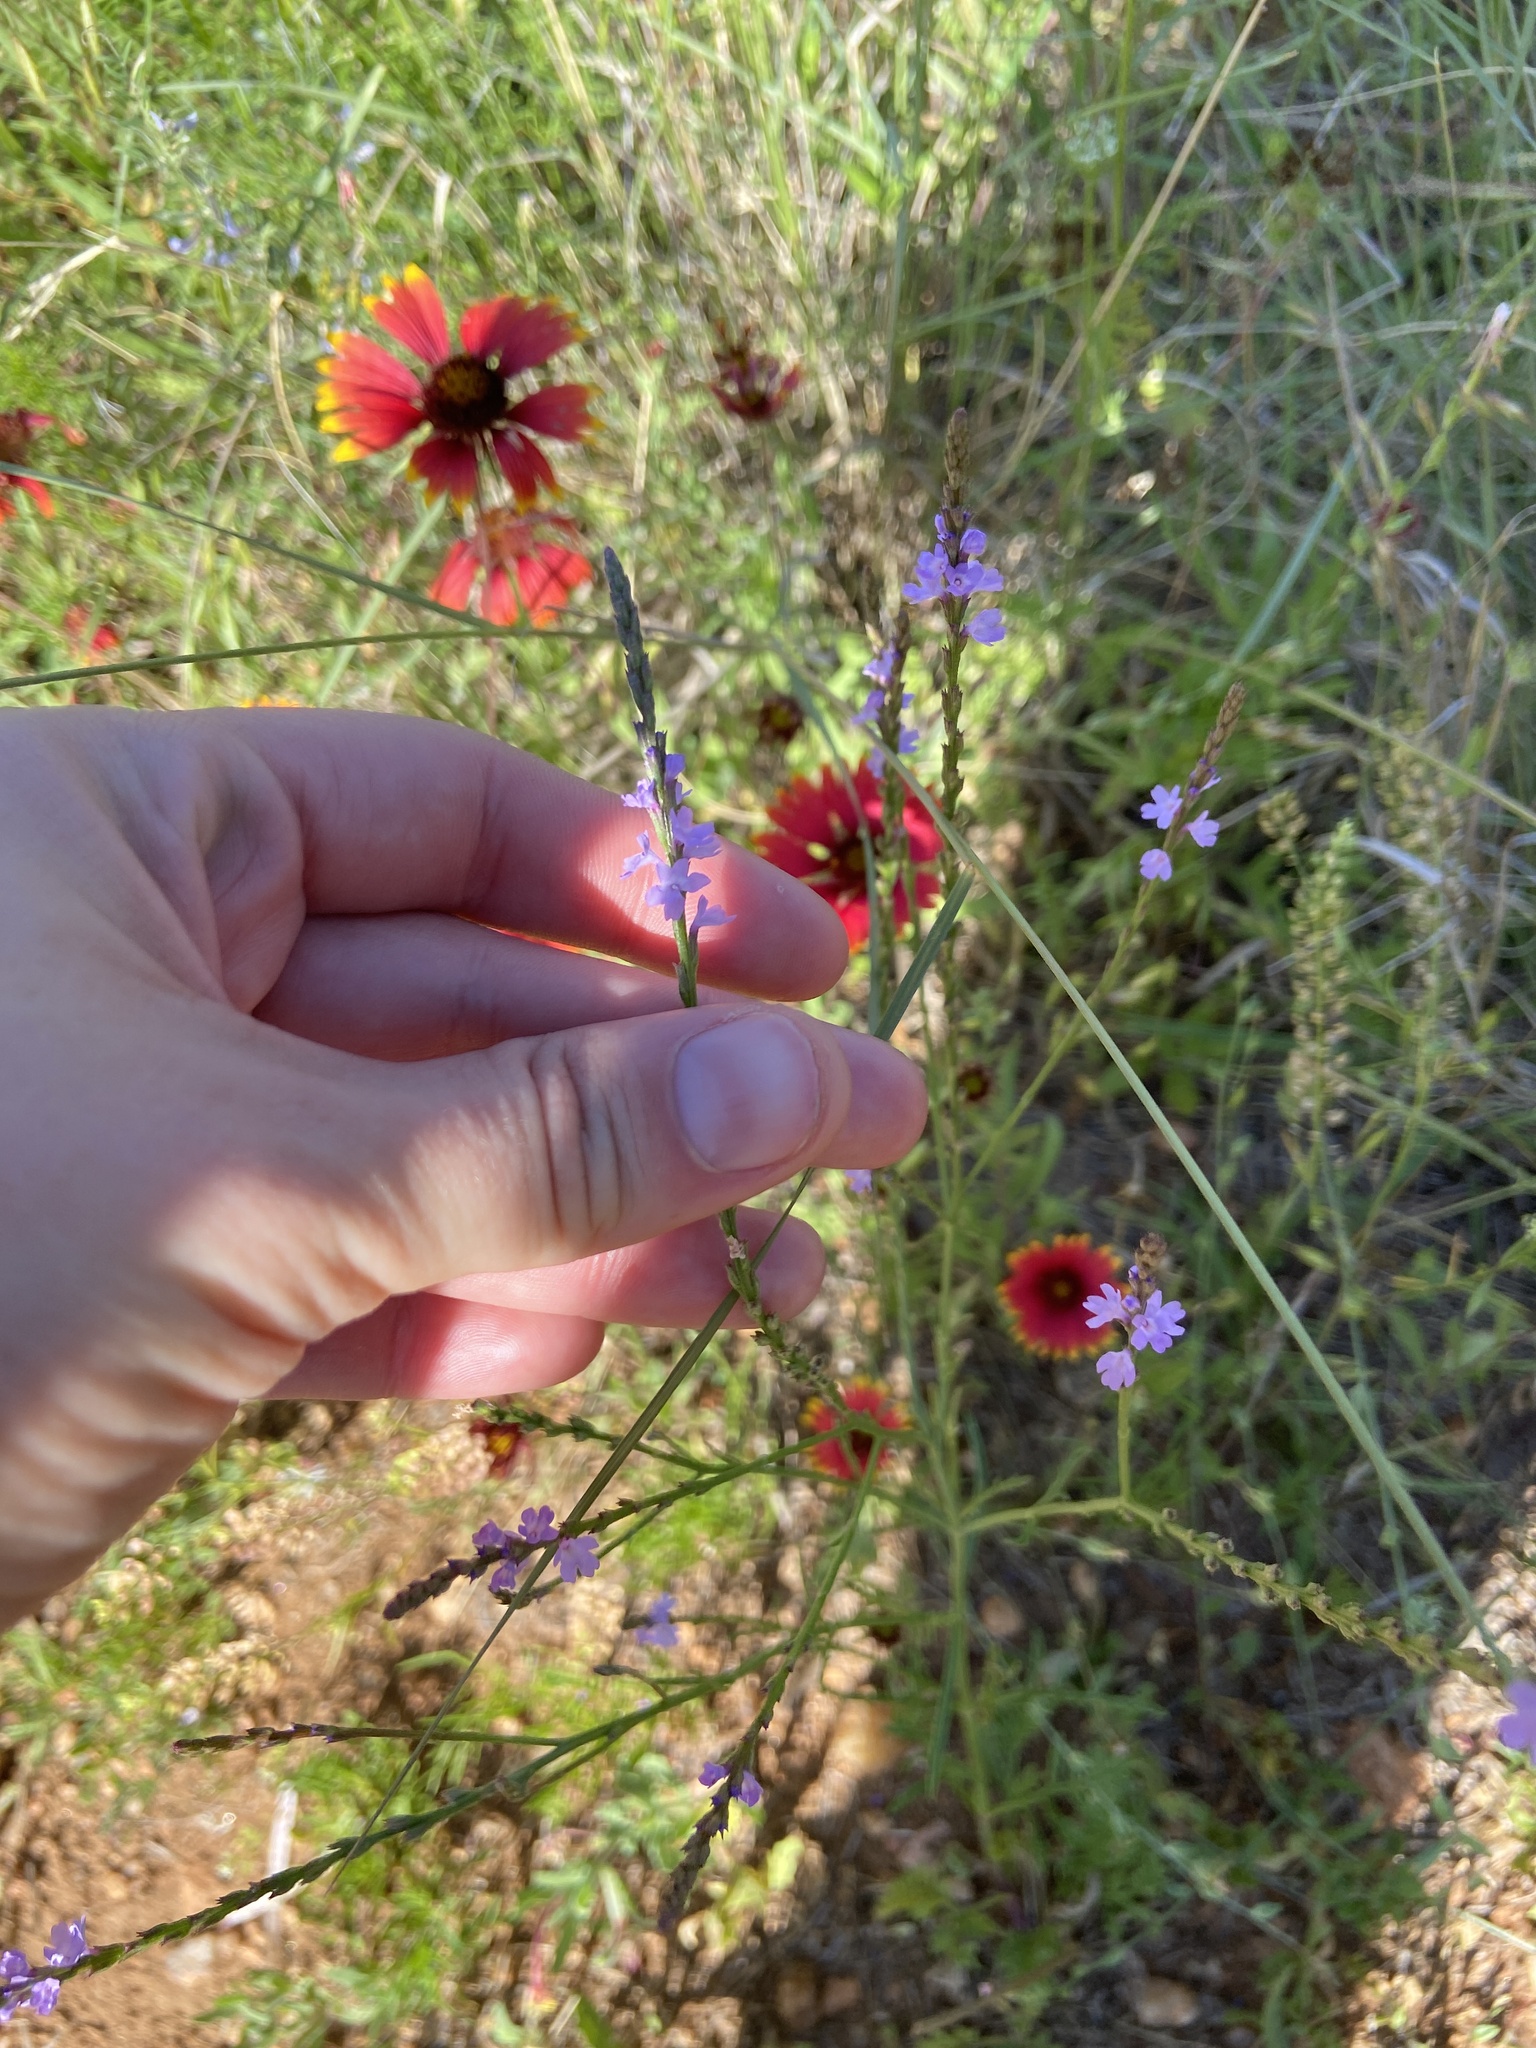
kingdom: Plantae
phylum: Tracheophyta
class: Magnoliopsida
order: Lamiales
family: Verbenaceae
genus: Verbena
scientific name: Verbena halei
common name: Texas vervain
